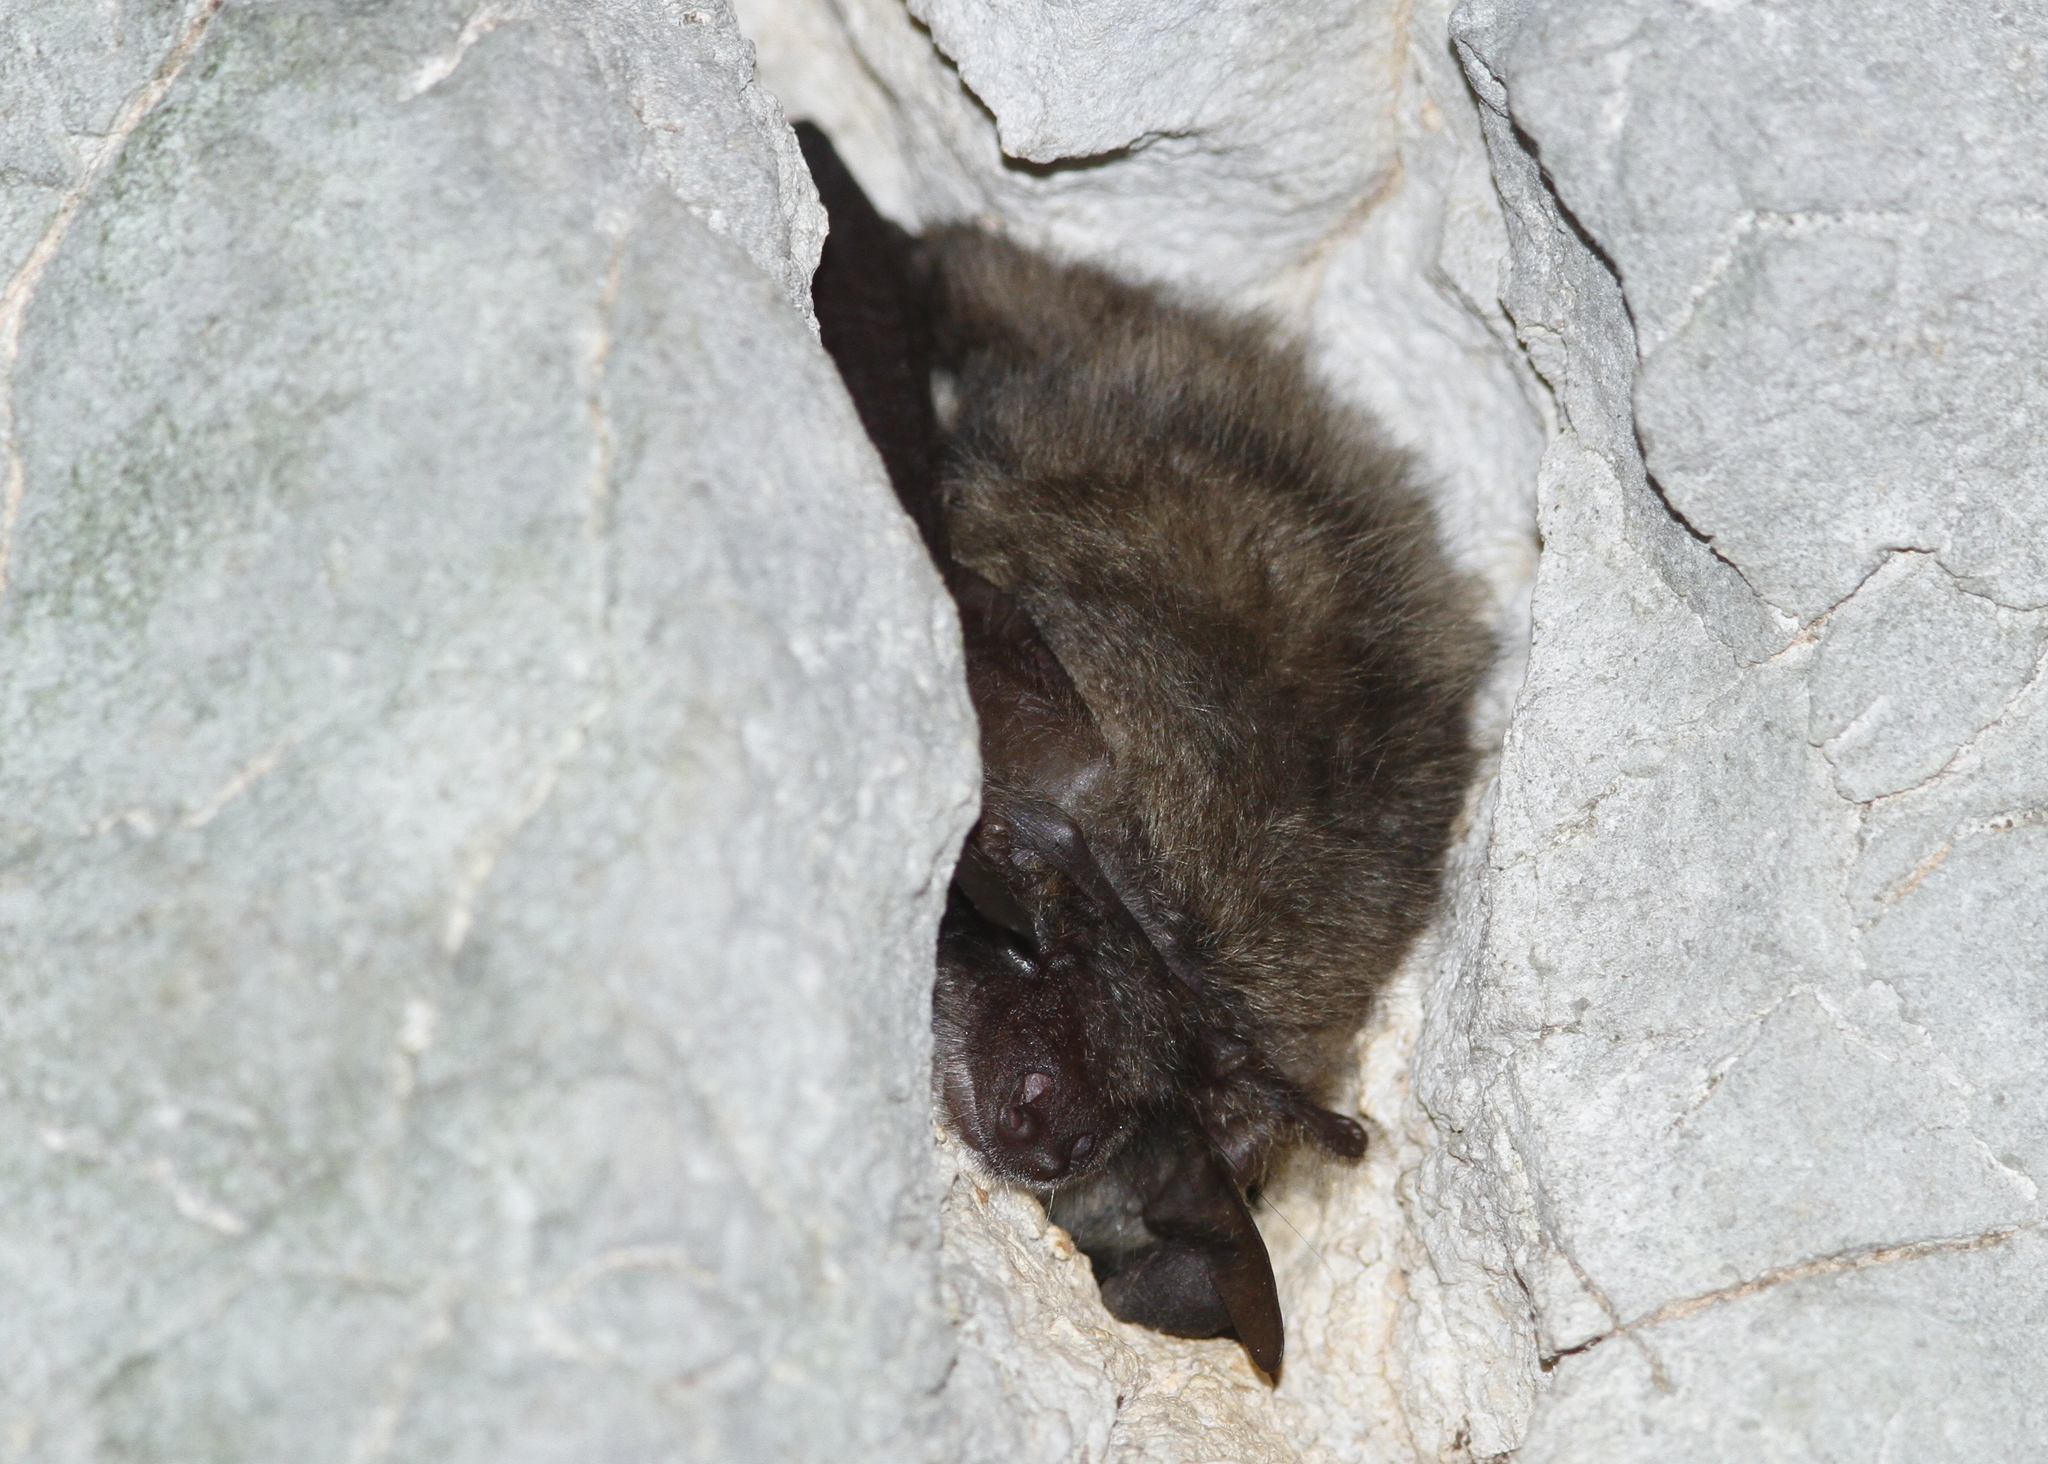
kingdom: Animalia
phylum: Chordata
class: Mammalia
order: Chiroptera
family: Vespertilionidae
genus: Plecotus
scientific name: Plecotus austriacus
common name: Grey long-eared bat
